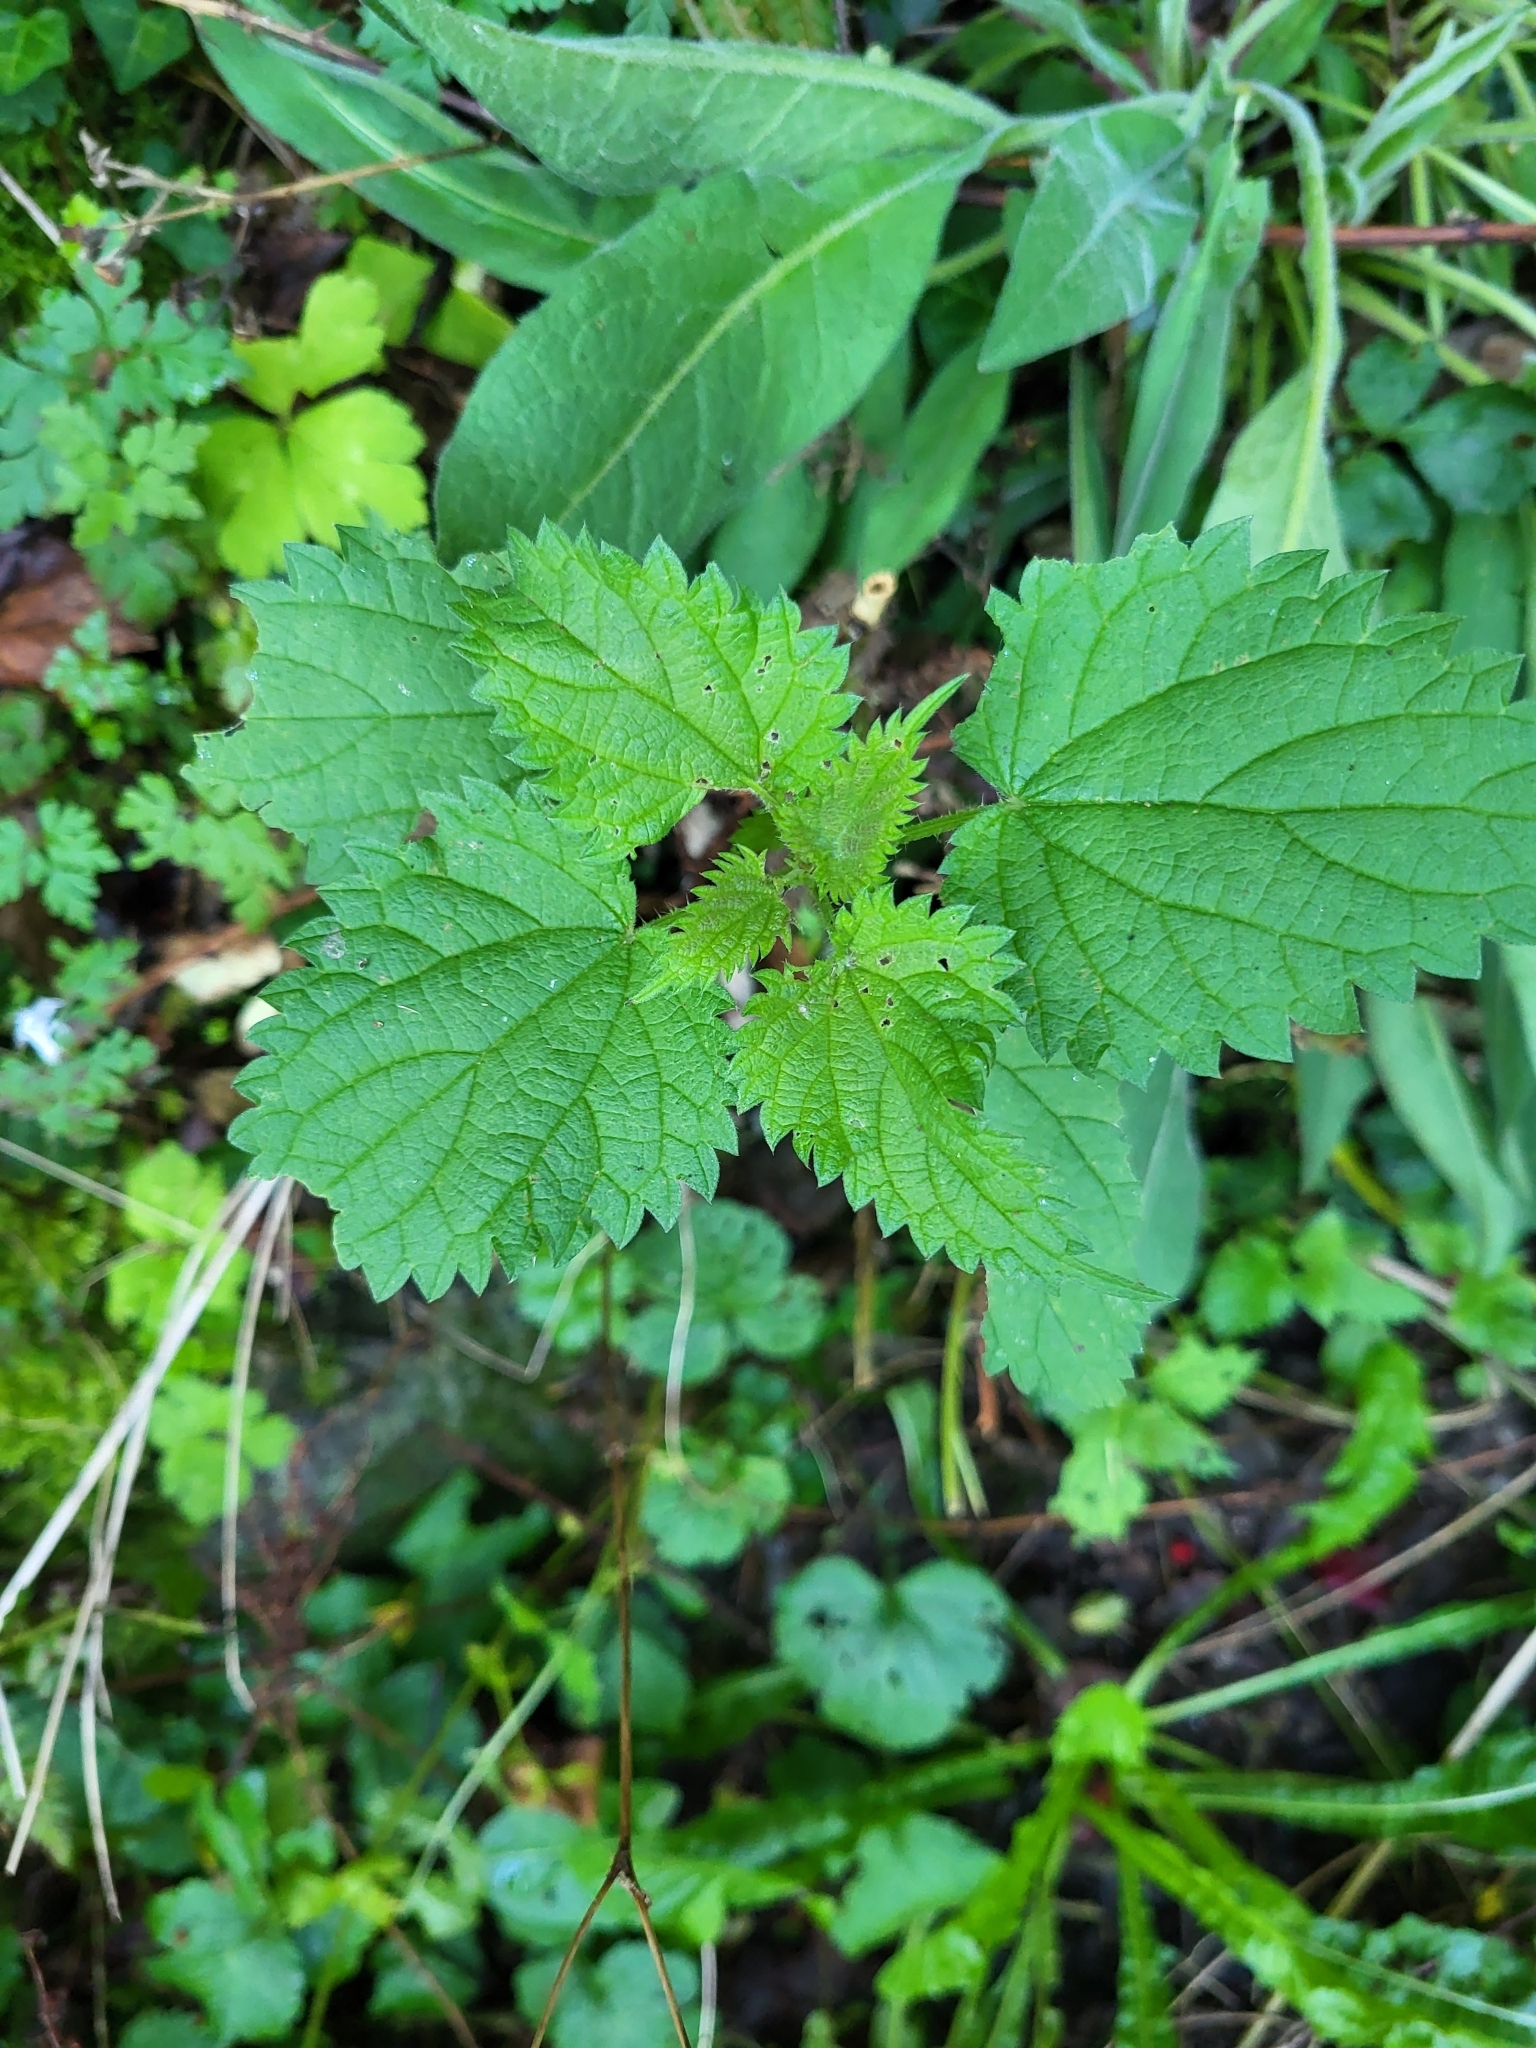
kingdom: Plantae
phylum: Tracheophyta
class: Magnoliopsida
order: Rosales
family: Urticaceae
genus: Urtica
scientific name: Urtica dioica
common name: Common nettle
